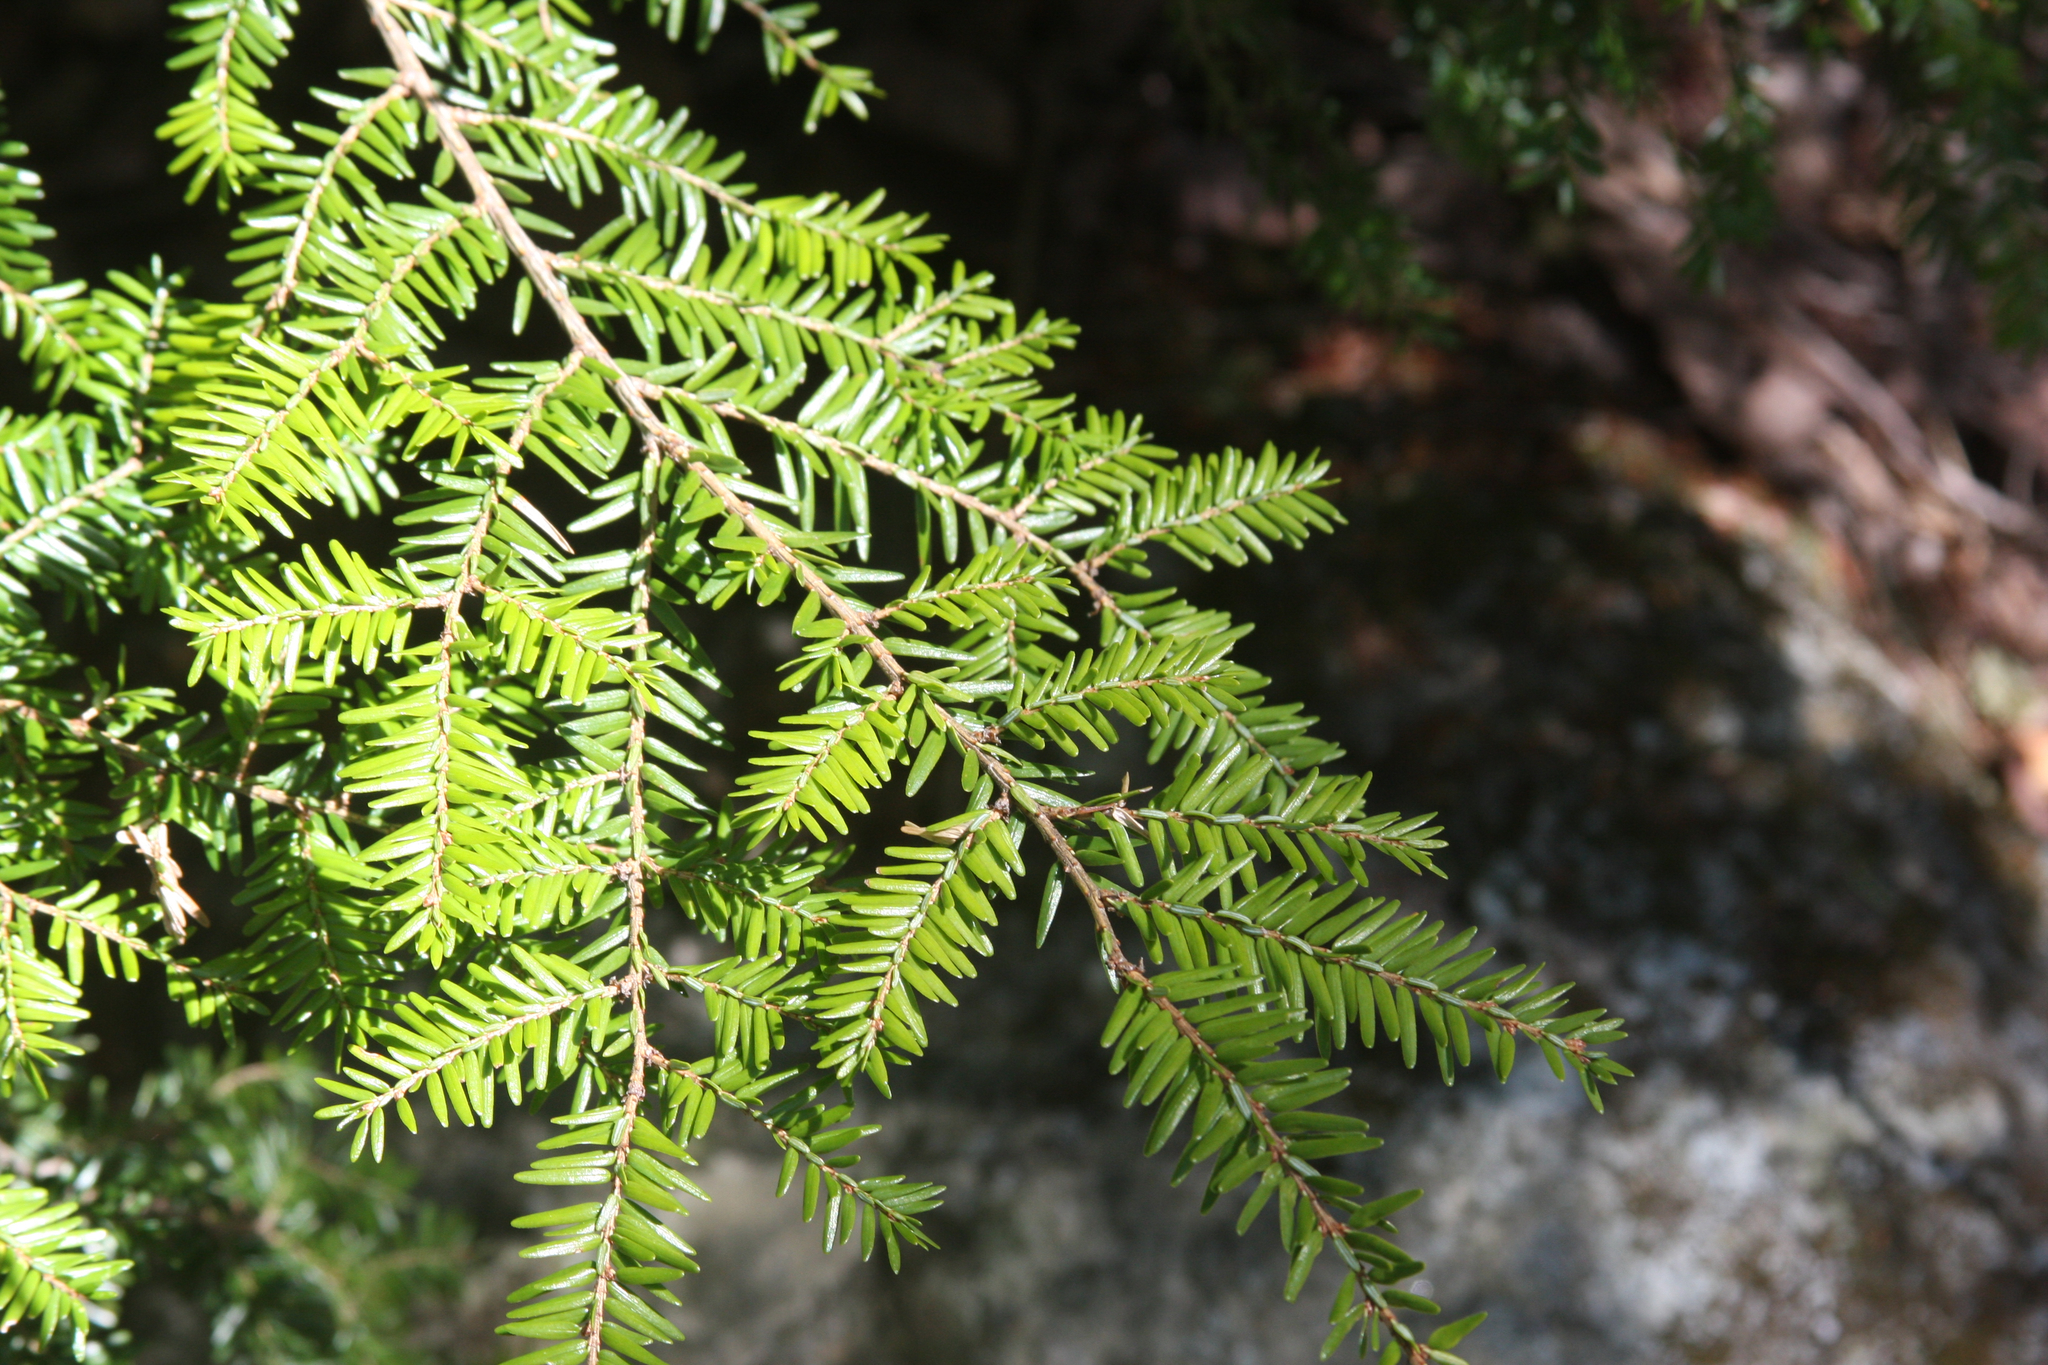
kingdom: Plantae
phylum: Tracheophyta
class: Pinopsida
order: Pinales
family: Pinaceae
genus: Tsuga
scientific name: Tsuga canadensis
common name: Eastern hemlock
